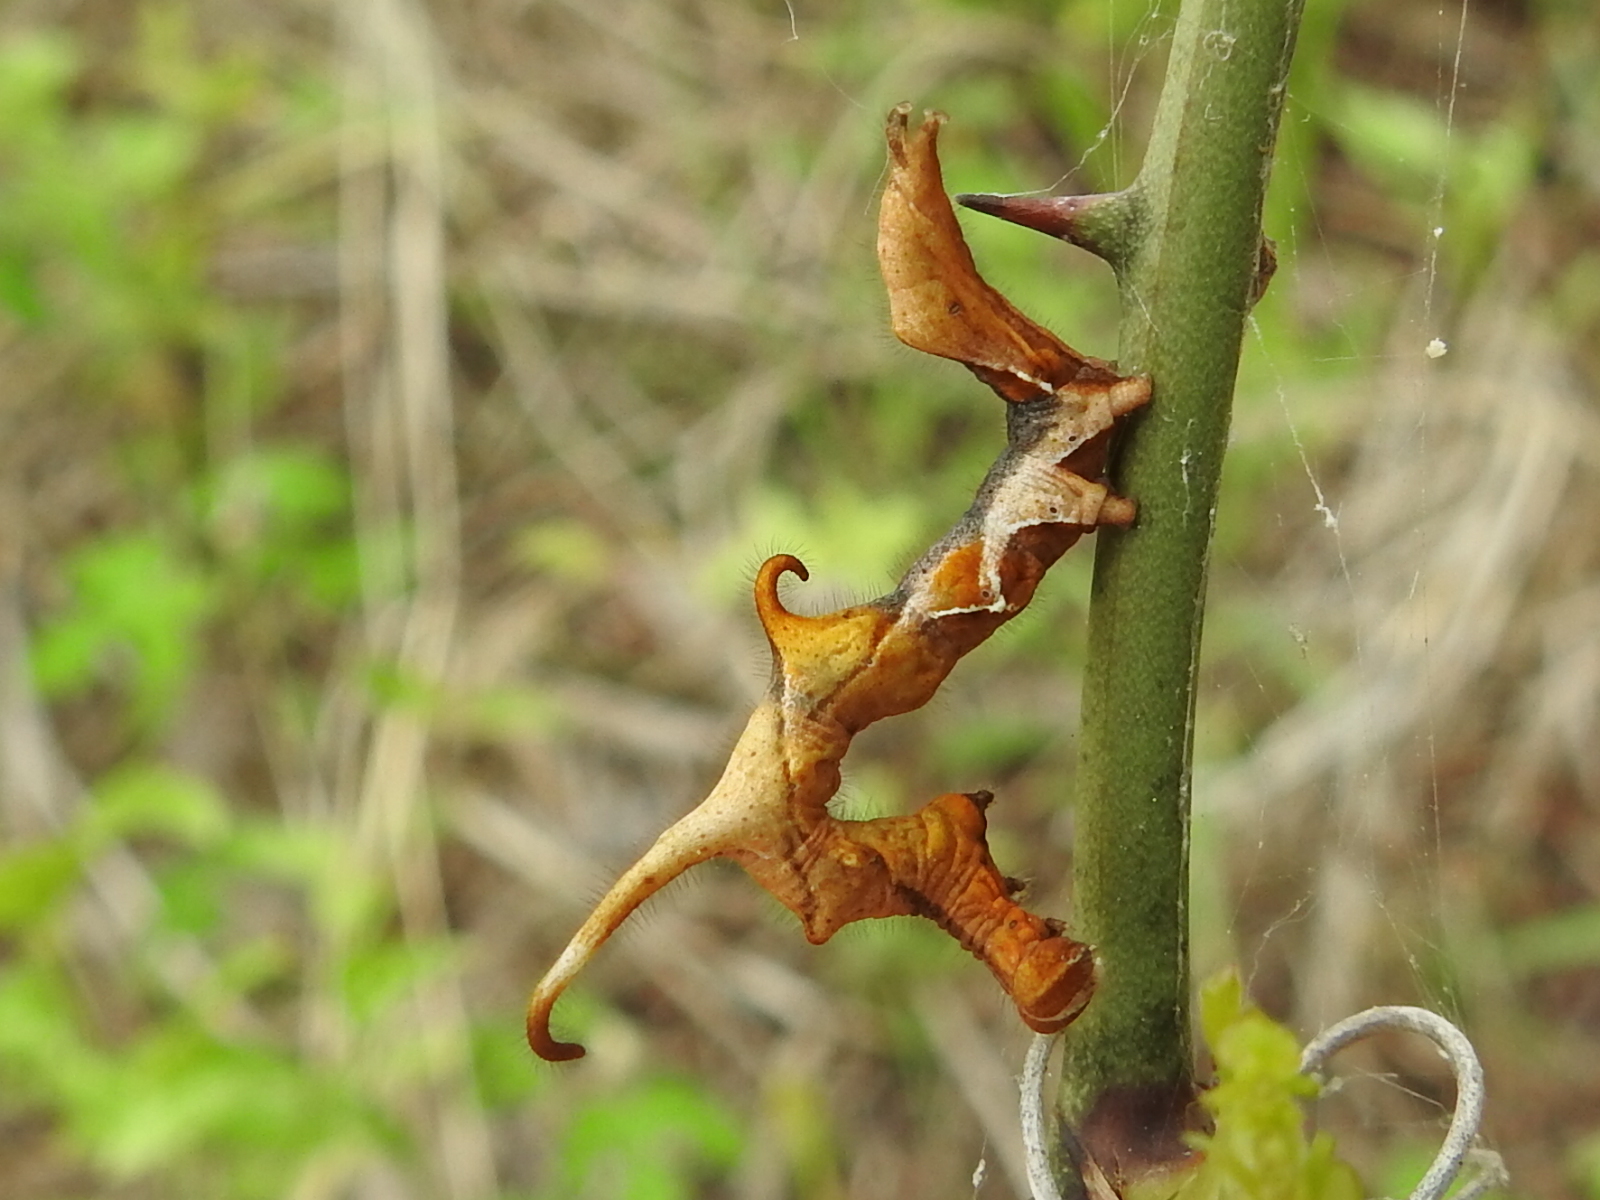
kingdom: Animalia
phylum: Arthropoda
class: Insecta
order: Lepidoptera
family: Erebidae
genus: Phyprosopus
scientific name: Phyprosopus callitrichoides
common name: Curved-lined owlet
